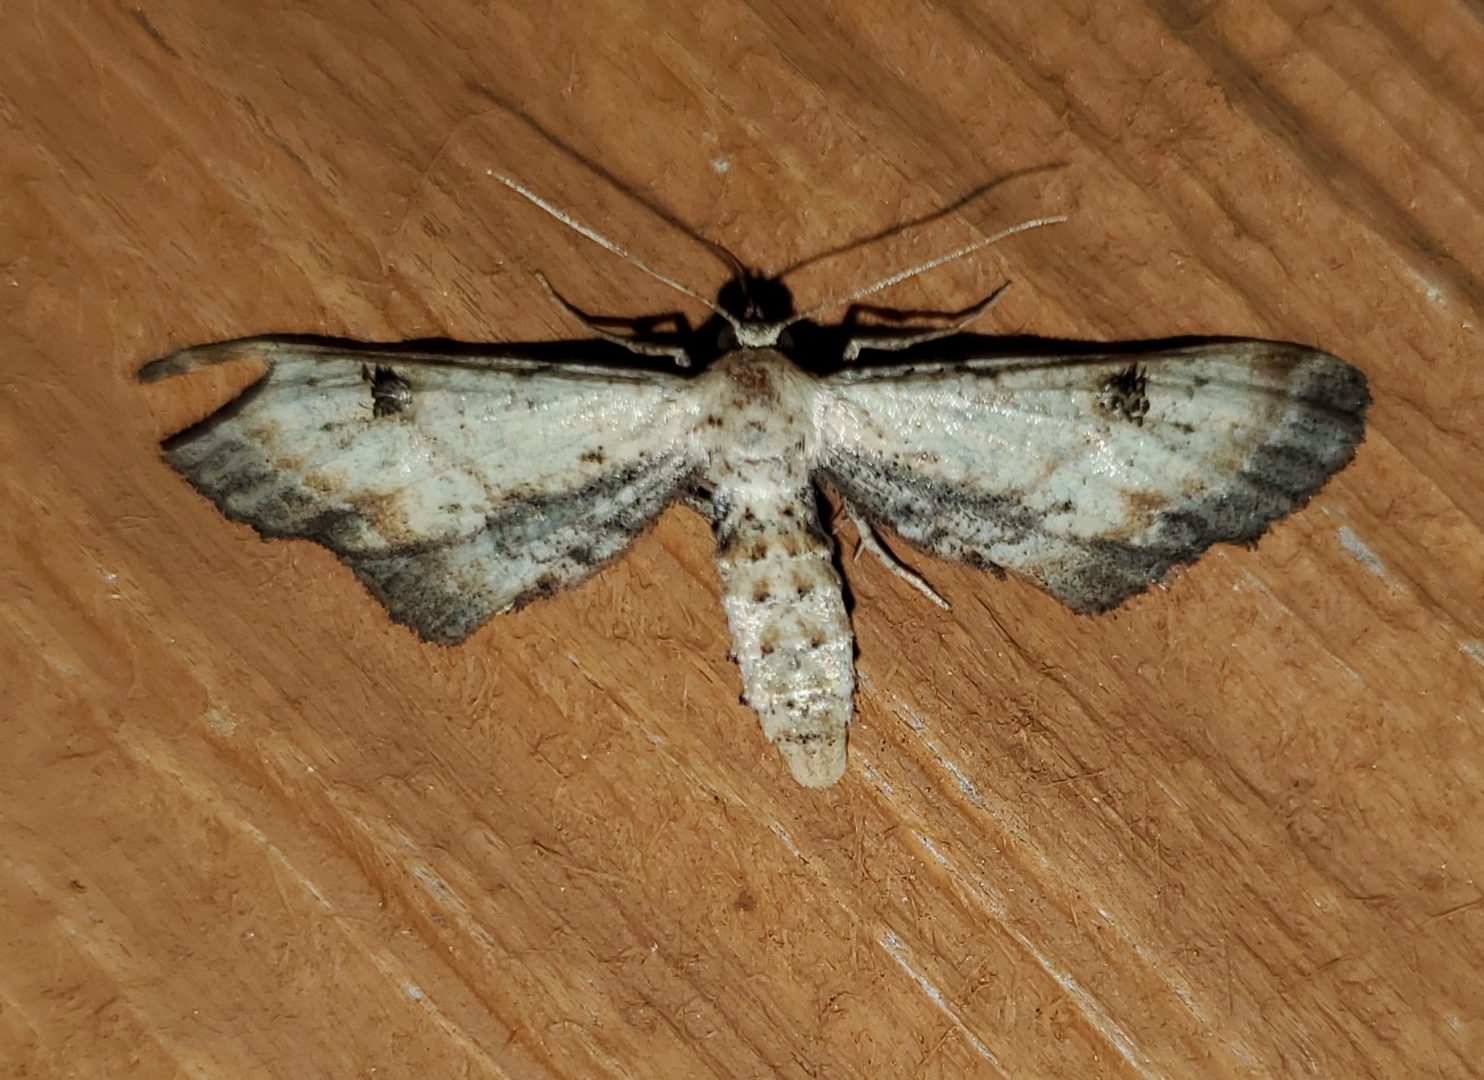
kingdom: Animalia
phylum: Arthropoda
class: Insecta
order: Lepidoptera
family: Geometridae
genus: Tornos
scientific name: Tornos scolopacinaria
